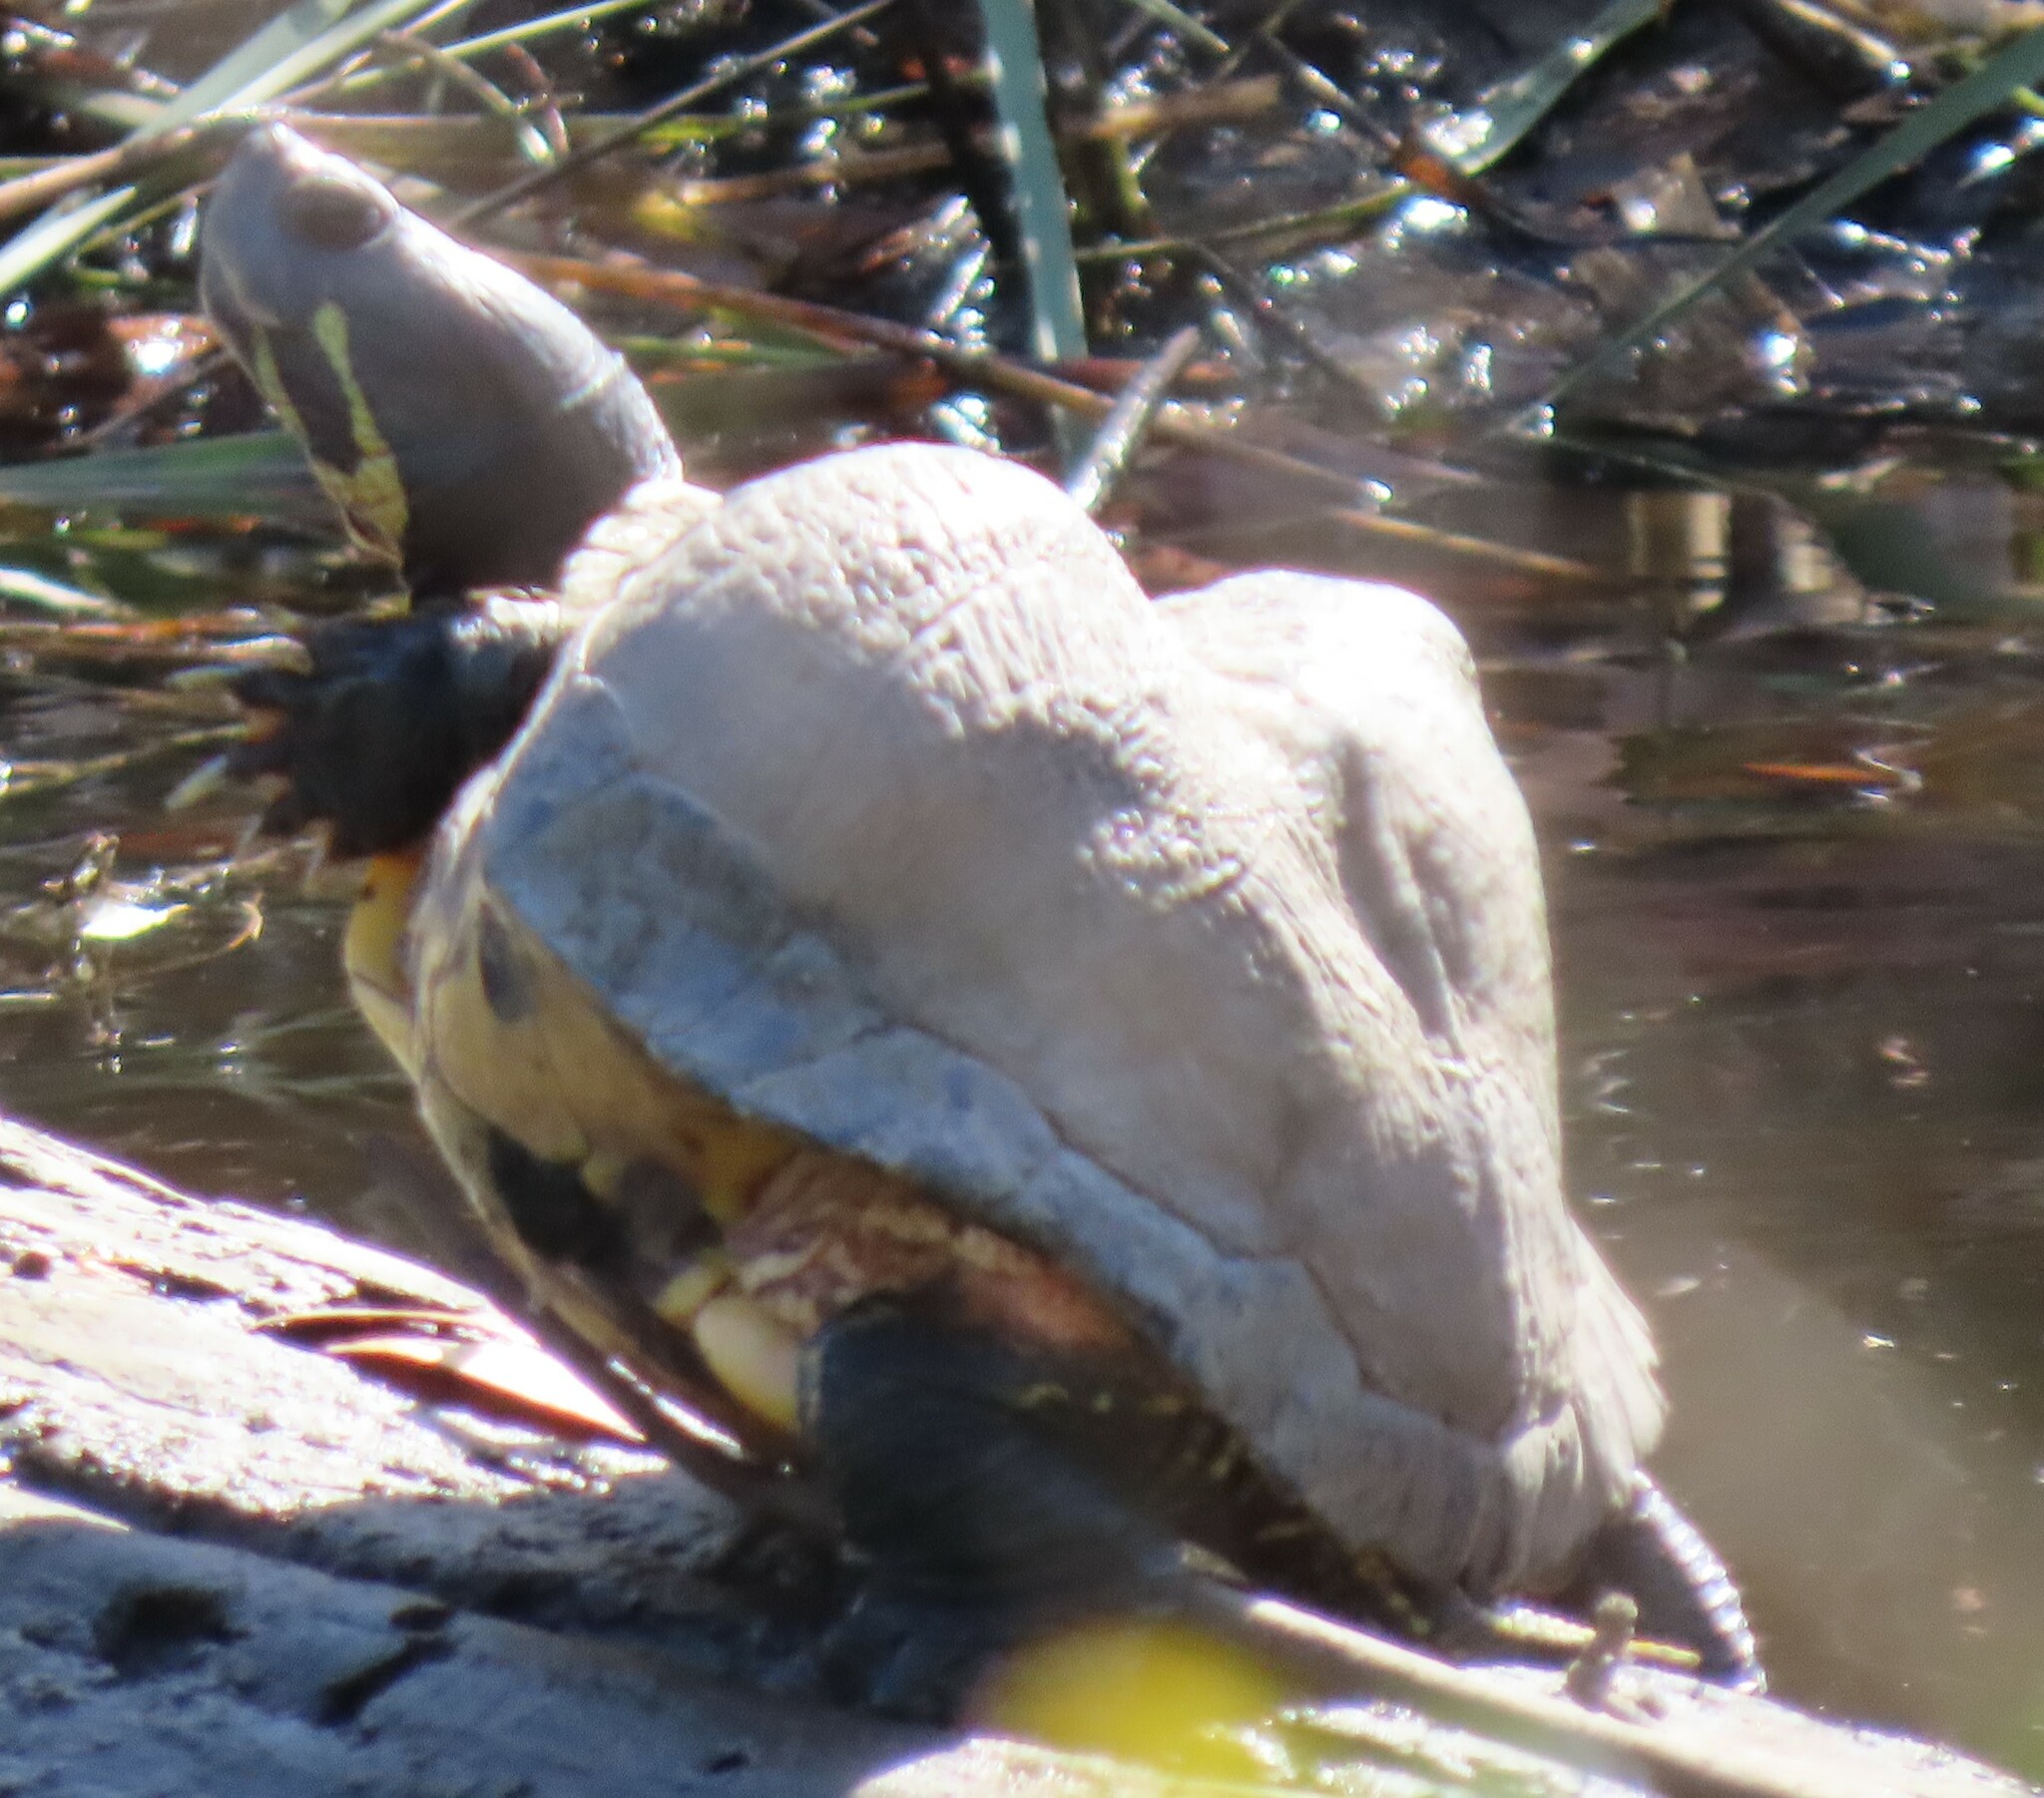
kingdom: Animalia
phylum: Chordata
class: Testudines
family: Emydidae
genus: Trachemys
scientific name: Trachemys scripta
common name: Slider
